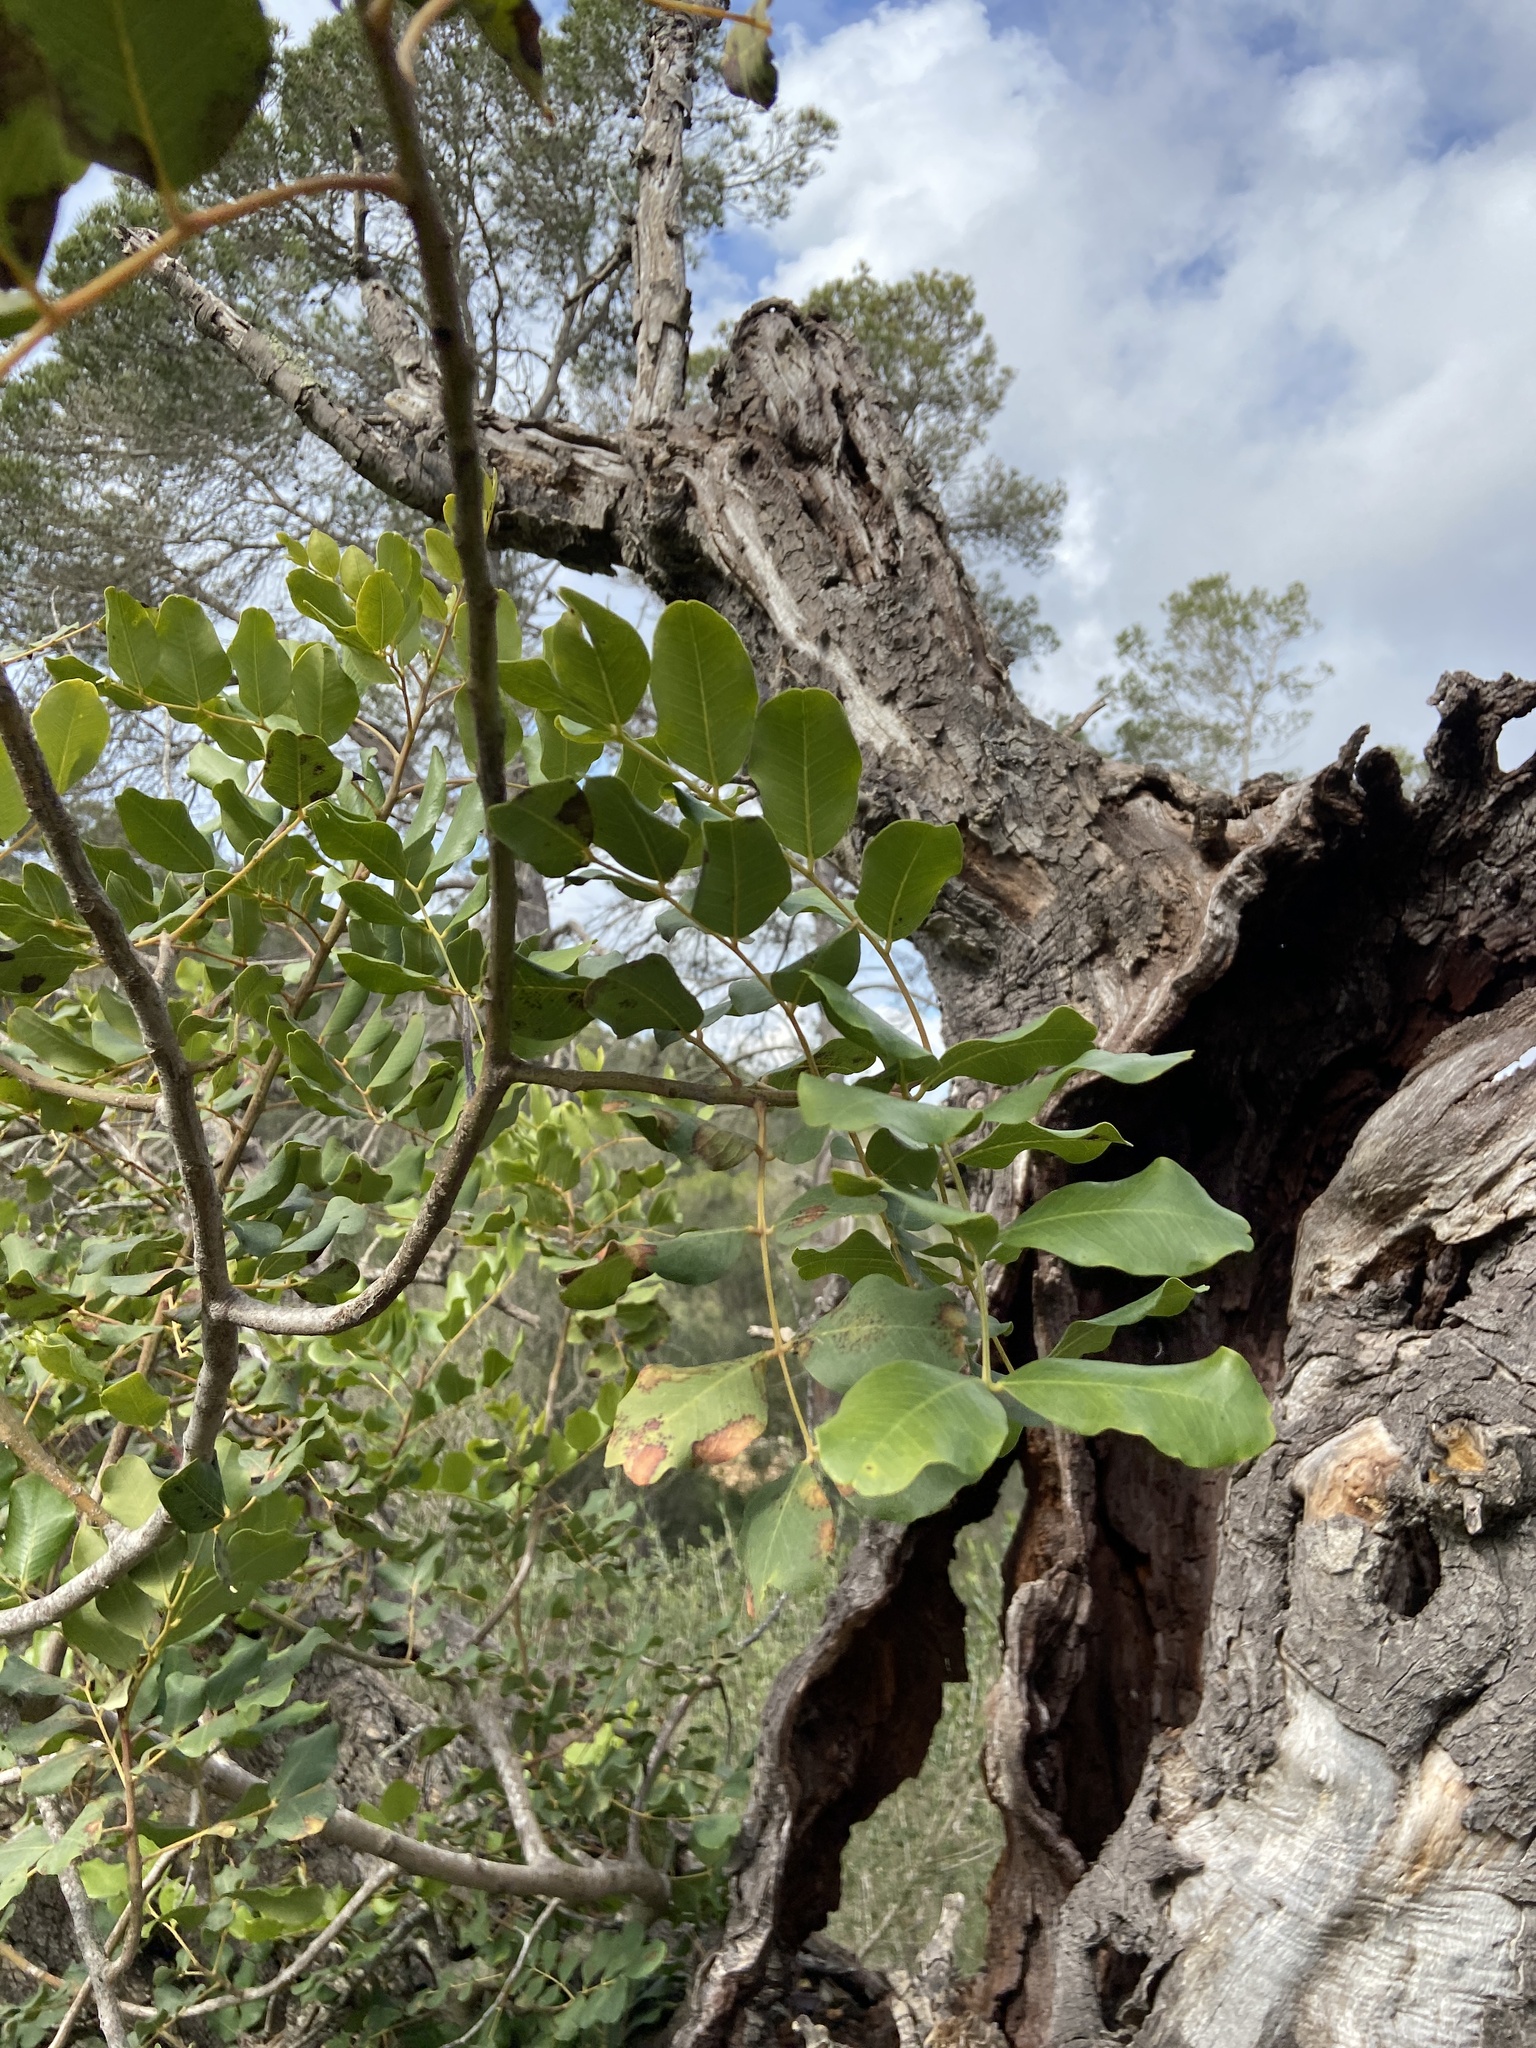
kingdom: Plantae
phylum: Tracheophyta
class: Magnoliopsida
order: Fabales
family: Fabaceae
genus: Ceratonia
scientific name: Ceratonia siliqua
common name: Carob
